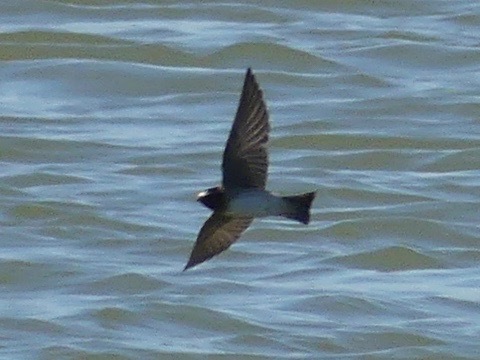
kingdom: Animalia
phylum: Chordata
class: Aves
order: Passeriformes
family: Hirundinidae
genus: Petrochelidon
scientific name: Petrochelidon pyrrhonota
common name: American cliff swallow
